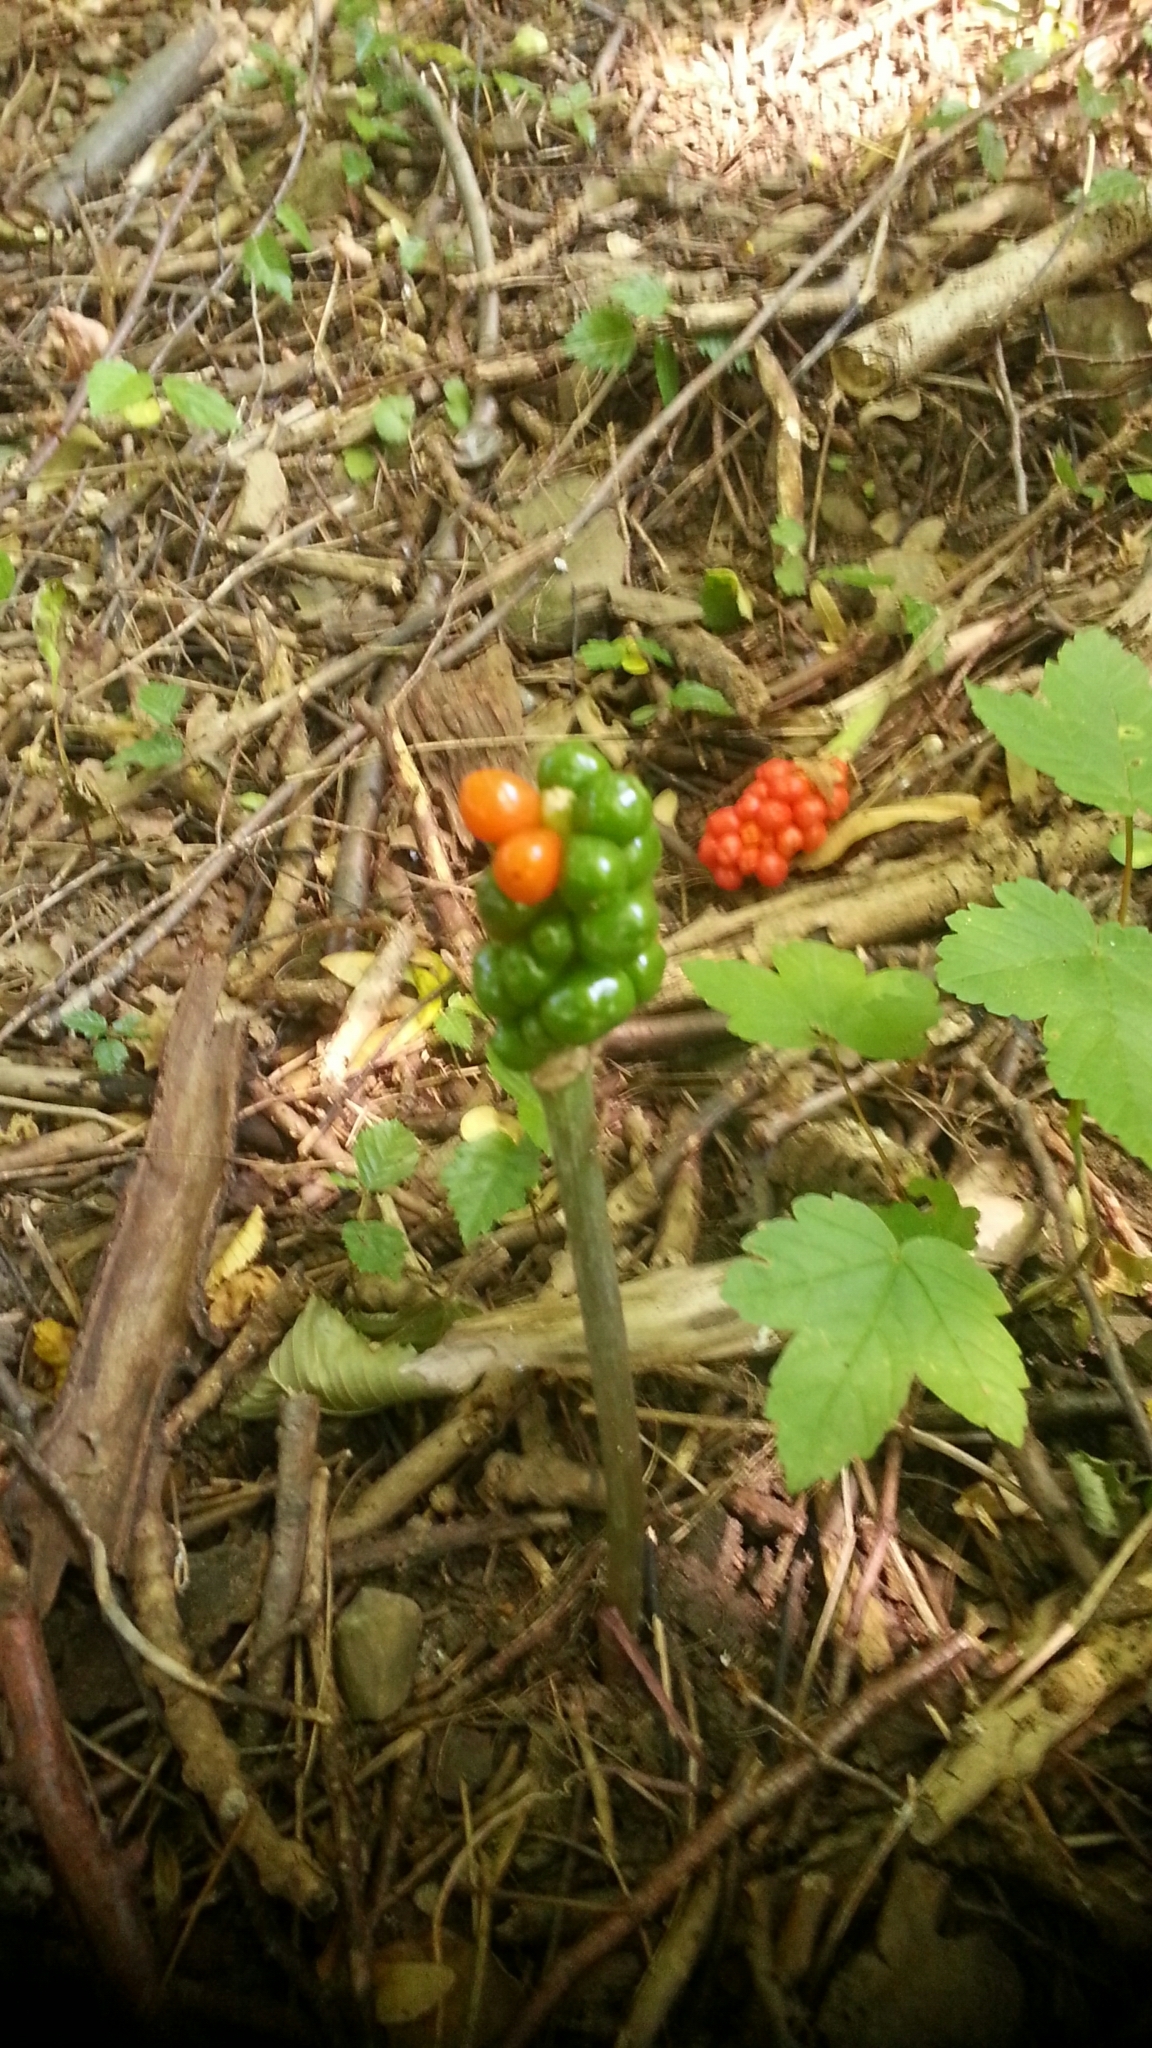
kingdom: Plantae
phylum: Tracheophyta
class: Liliopsida
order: Alismatales
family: Araceae
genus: Arum
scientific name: Arum
